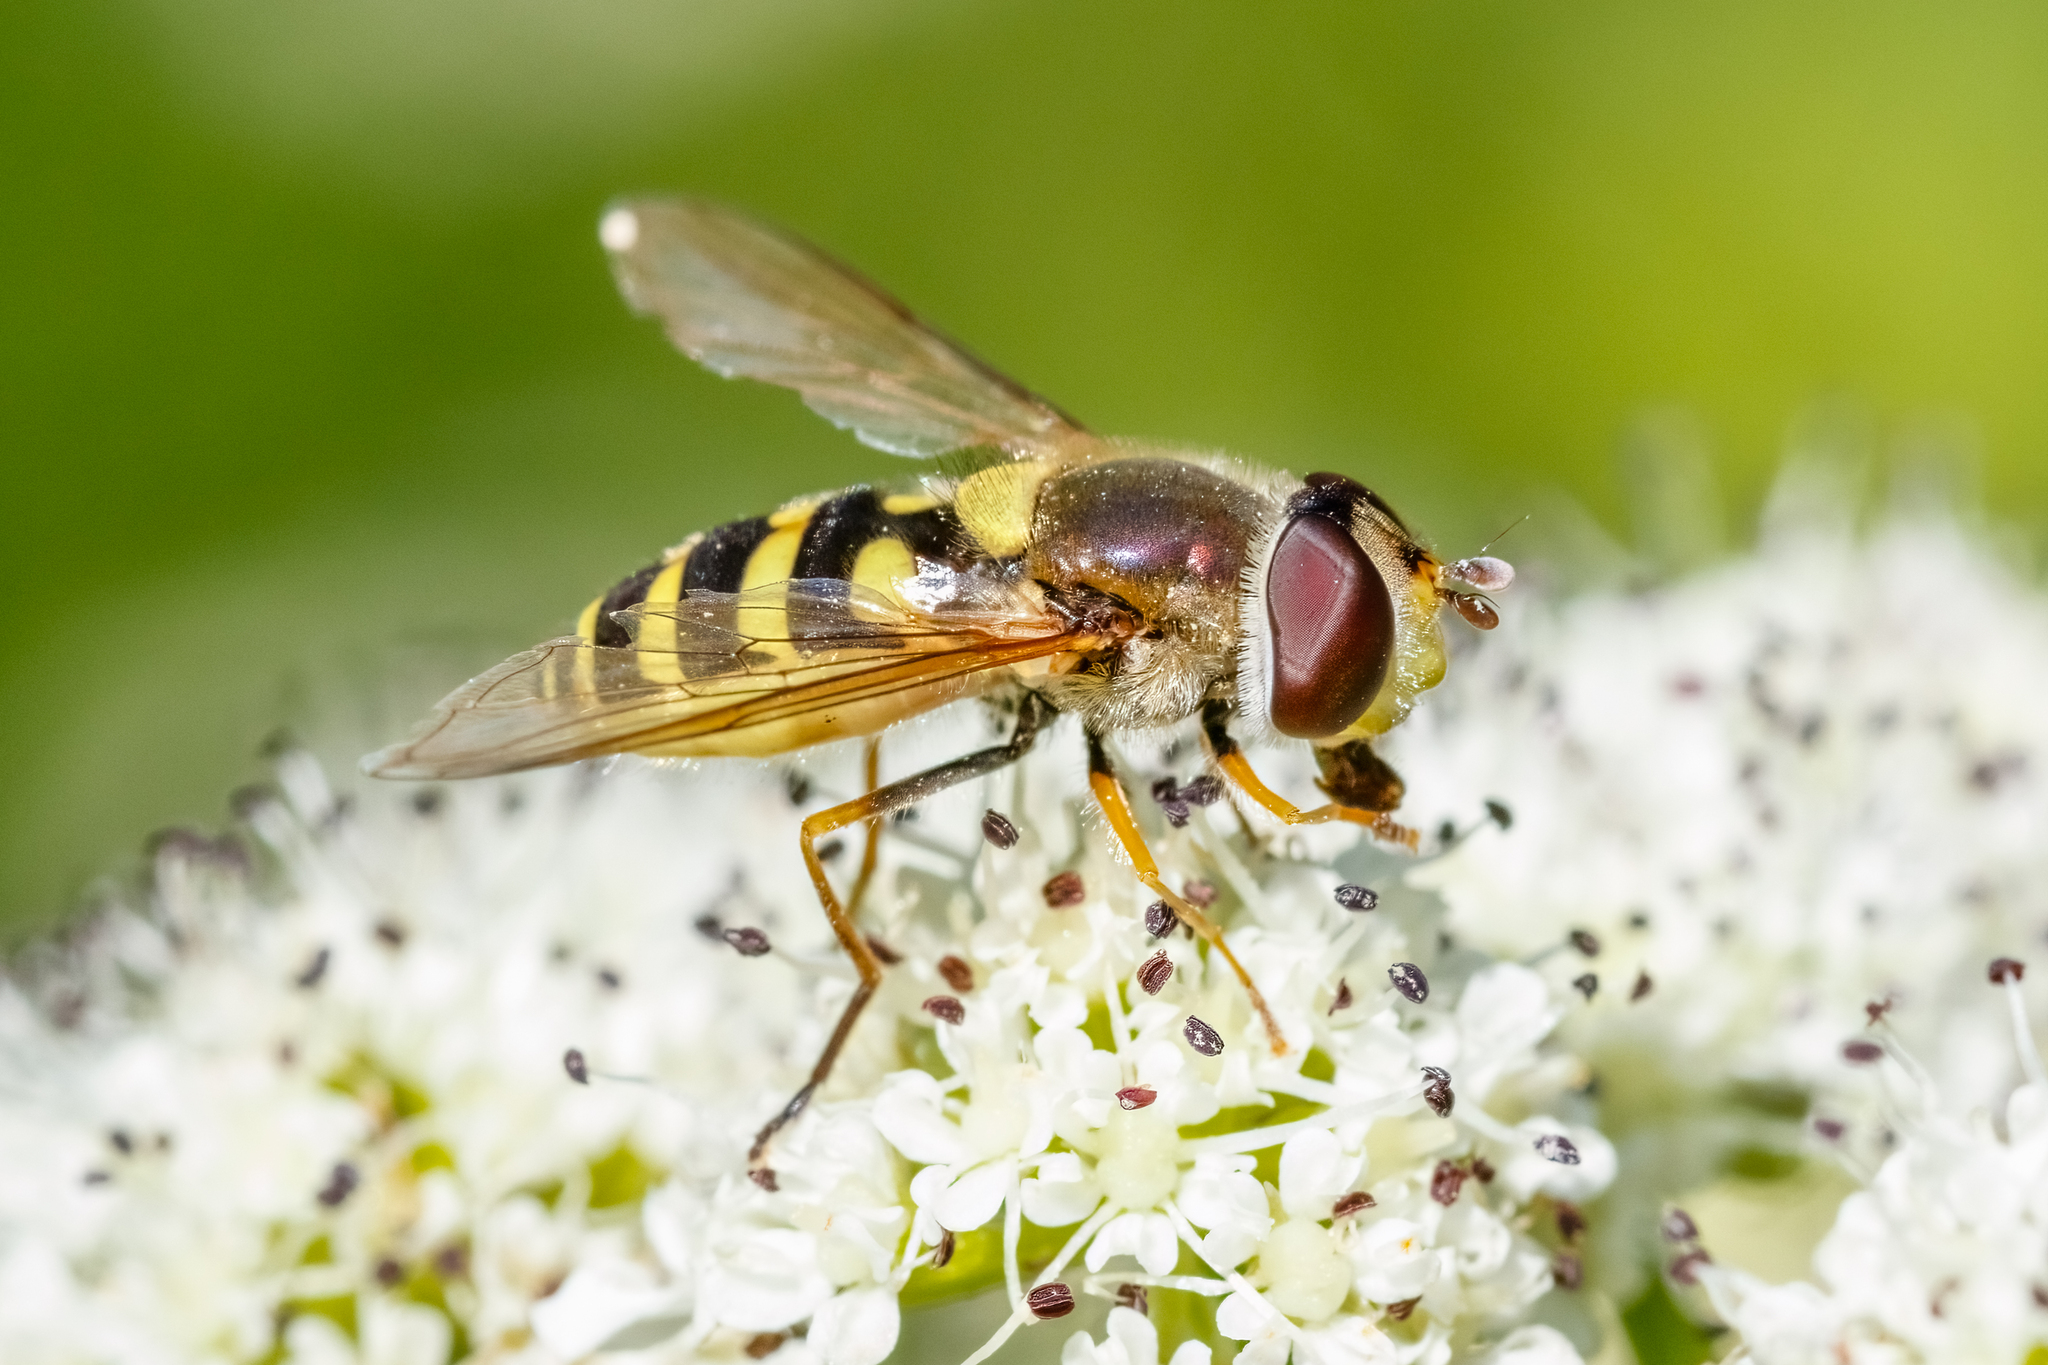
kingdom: Animalia
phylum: Arthropoda
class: Insecta
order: Diptera
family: Syrphidae
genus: Syrphus
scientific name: Syrphus
